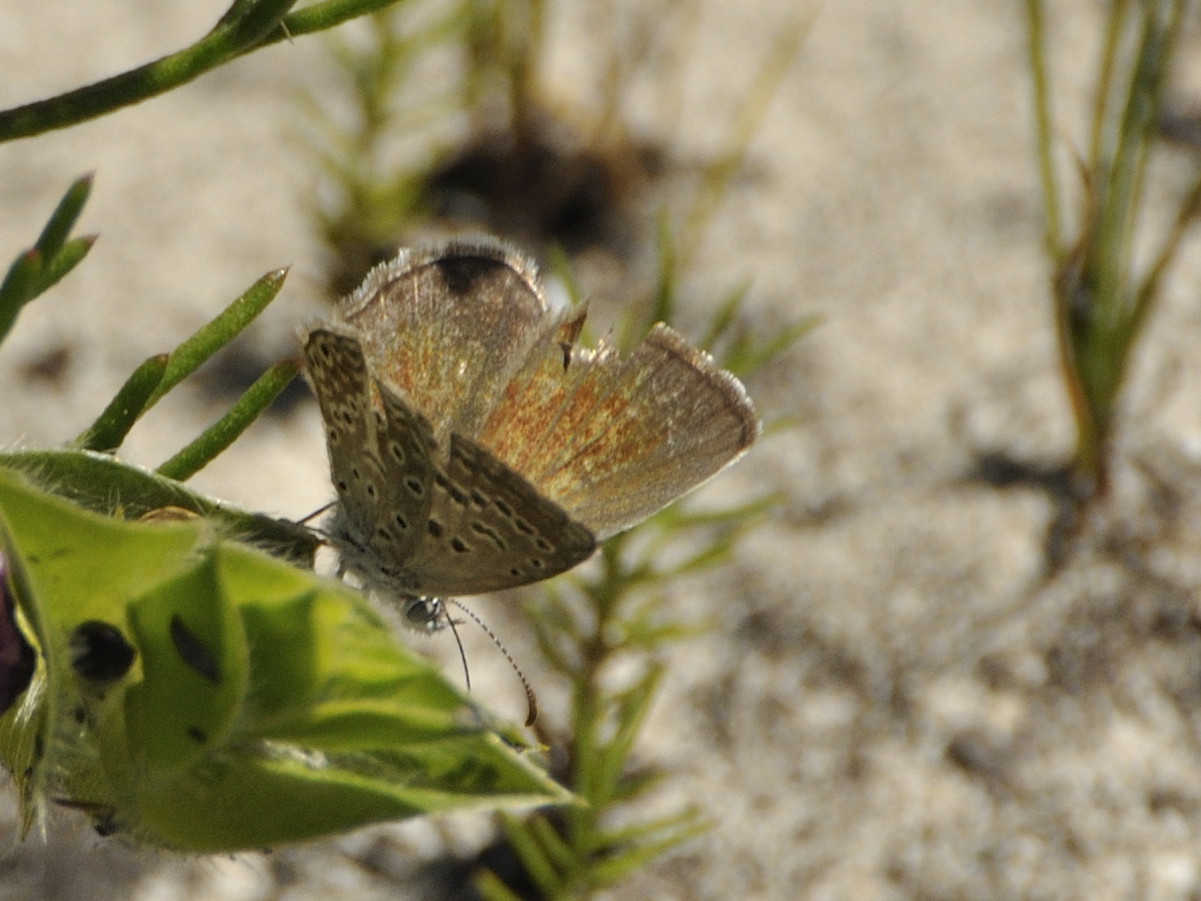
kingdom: Animalia
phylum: Arthropoda
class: Insecta
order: Lepidoptera
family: Lycaenidae
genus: Actizera
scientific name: Actizera lucida
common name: Rayed blue
